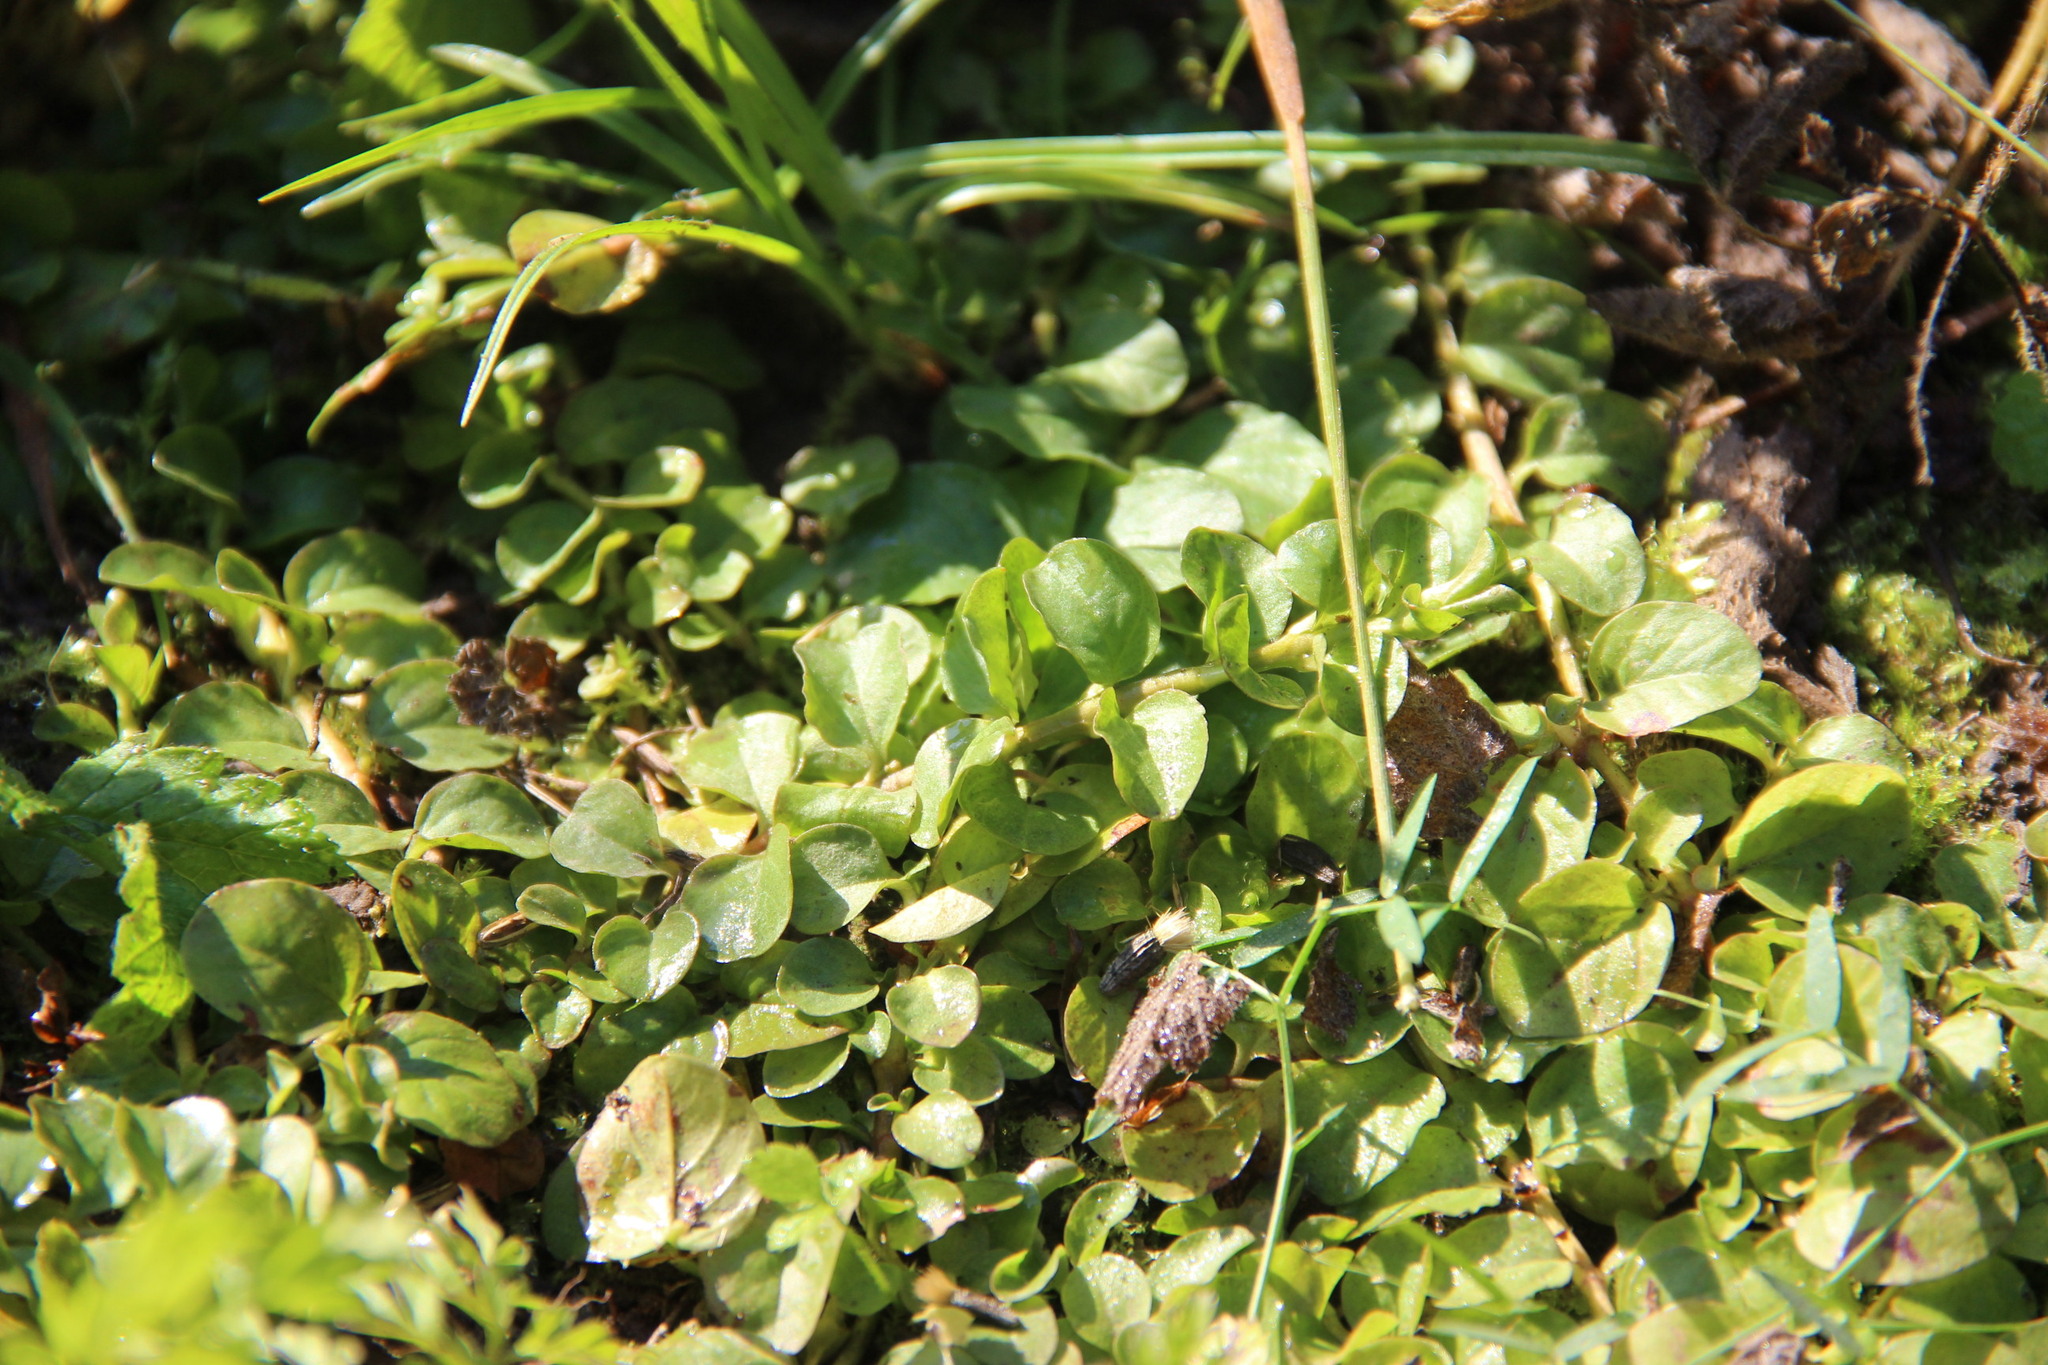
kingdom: Plantae
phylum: Tracheophyta
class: Magnoliopsida
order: Ericales
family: Primulaceae
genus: Lysimachia
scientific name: Lysimachia nummularia
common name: Moneywort
